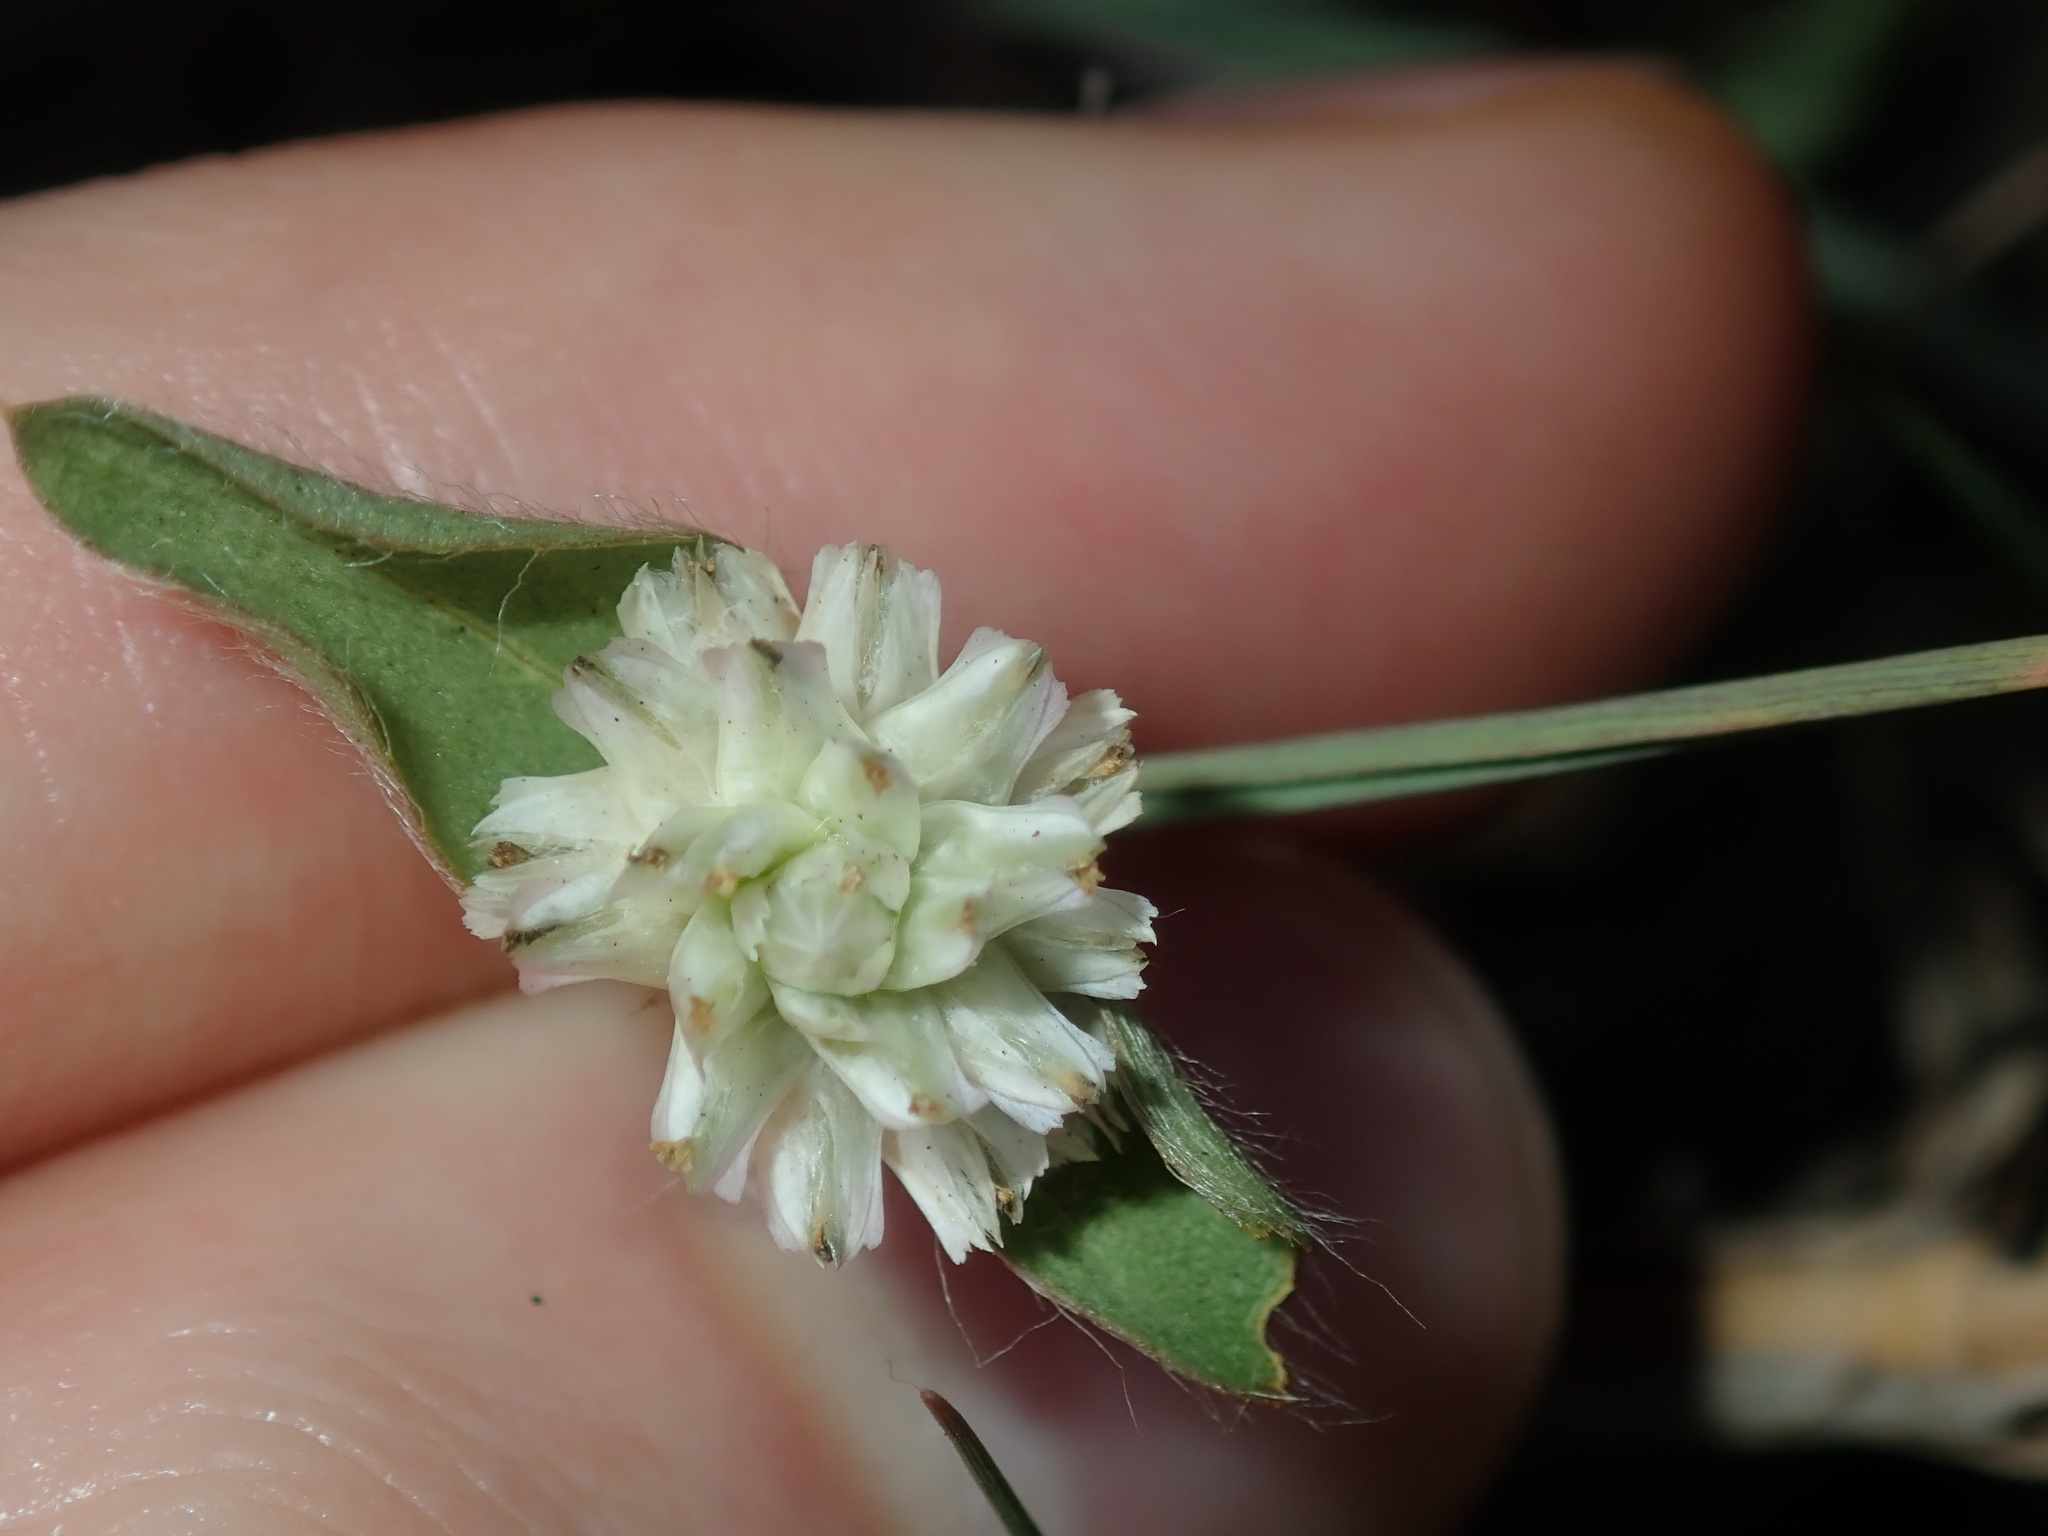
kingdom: Plantae
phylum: Tracheophyta
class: Magnoliopsida
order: Caryophyllales
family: Amaranthaceae
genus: Gomphrena
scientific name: Gomphrena celosioides
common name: Gomphrena-weed
